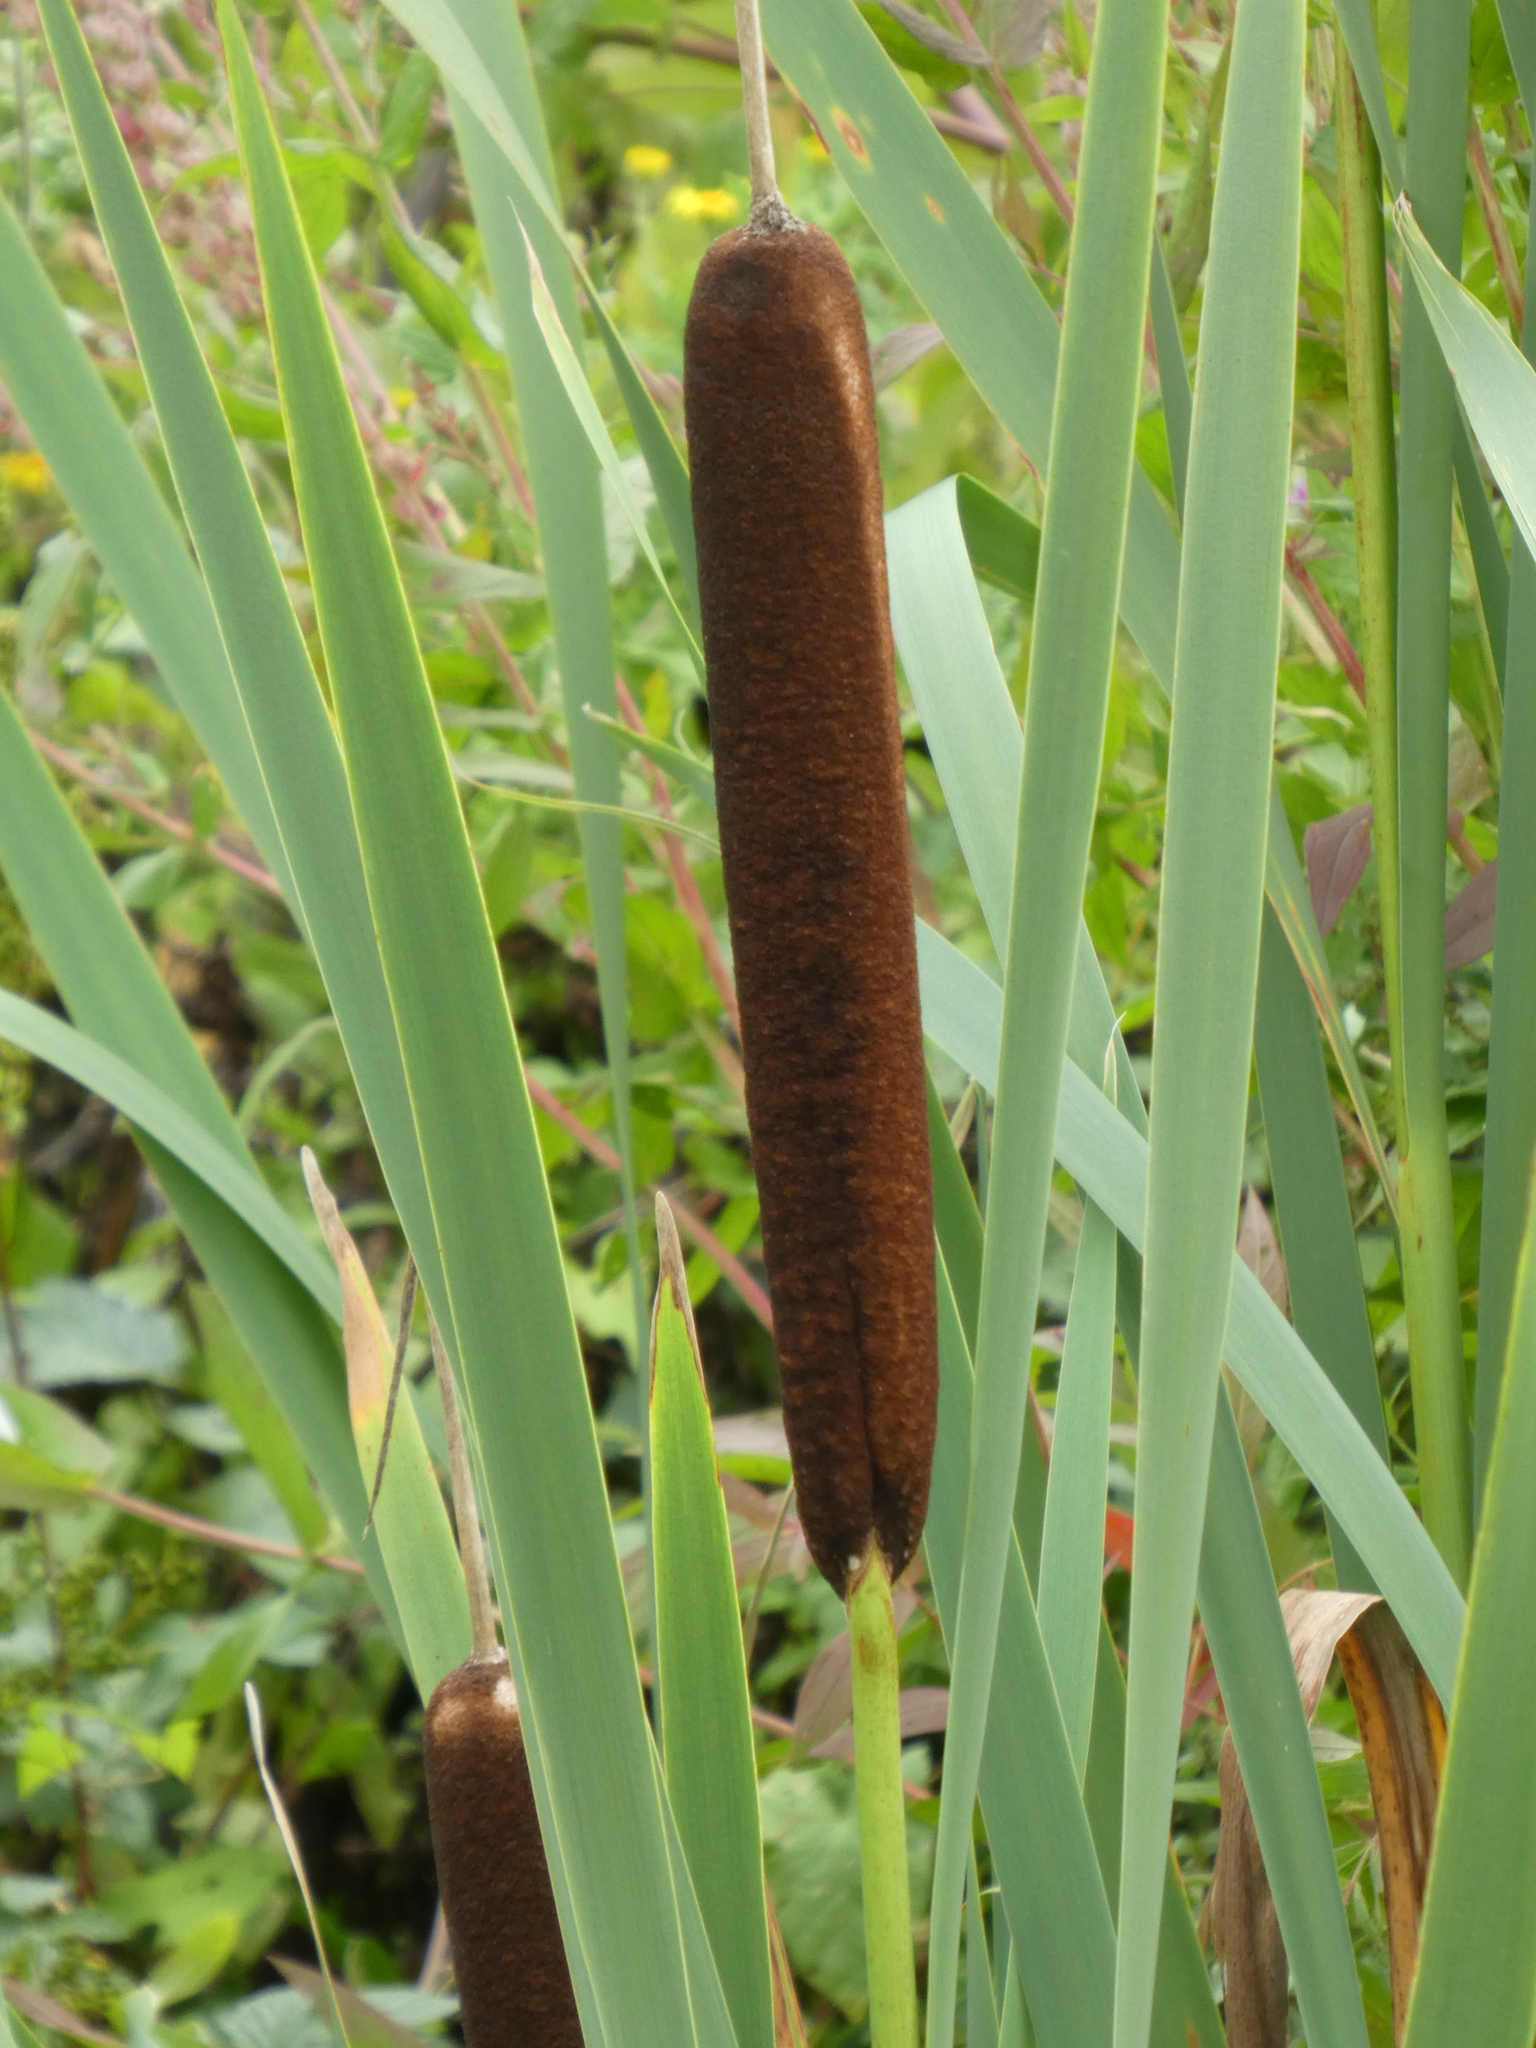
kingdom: Plantae
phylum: Tracheophyta
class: Liliopsida
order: Poales
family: Typhaceae
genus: Typha
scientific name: Typha latifolia
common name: Broadleaf cattail
